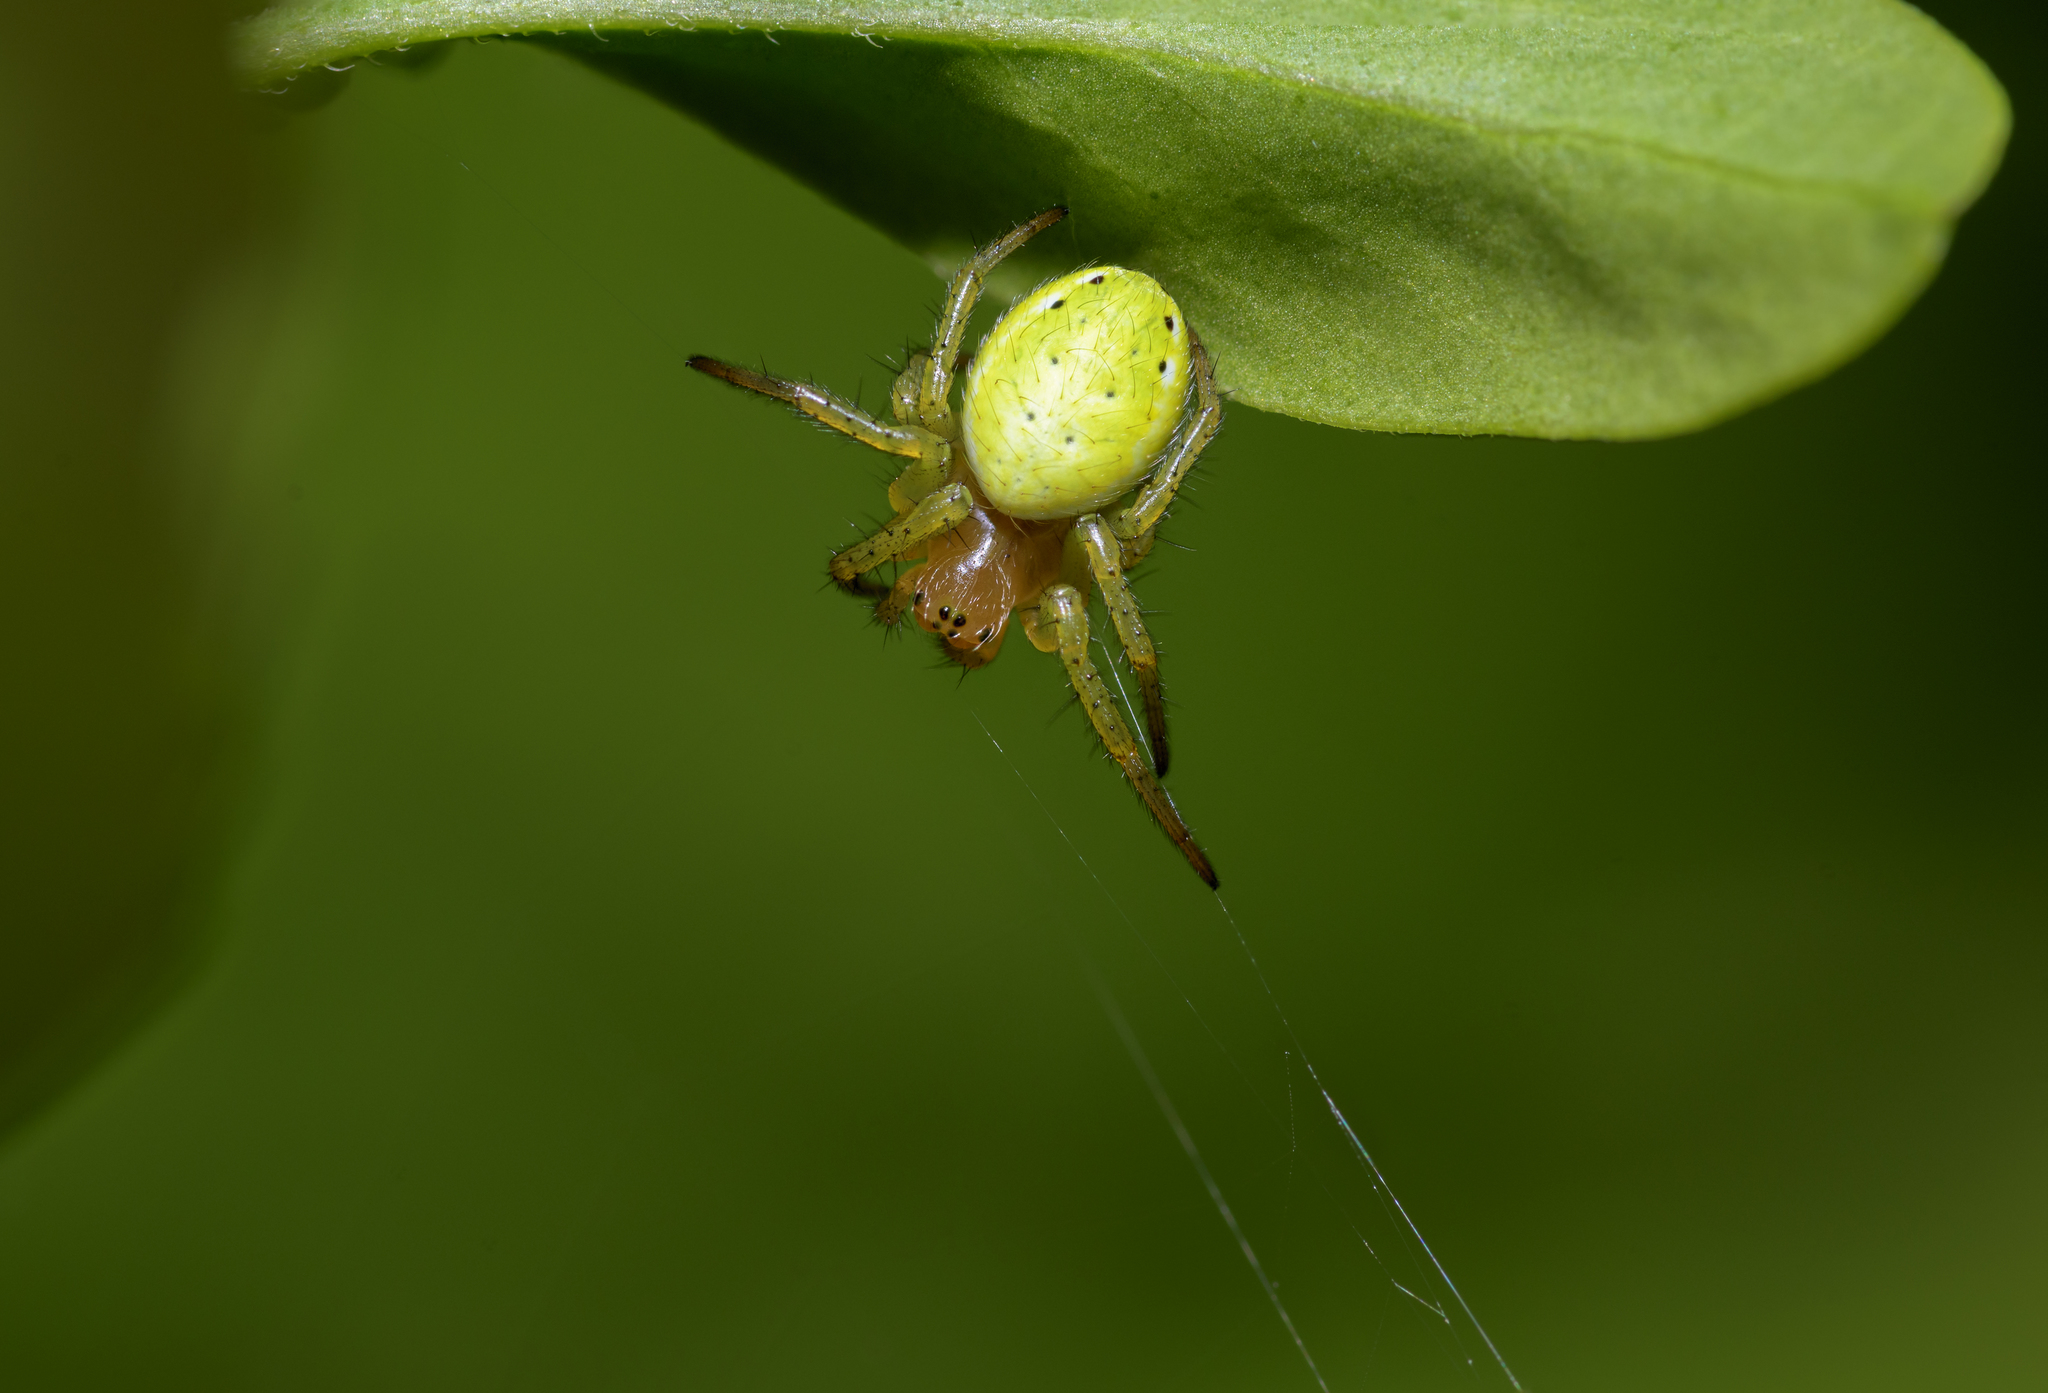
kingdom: Animalia
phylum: Arthropoda
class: Arachnida
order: Araneae
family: Araneidae
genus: Araniella
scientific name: Araniella cucurbitina
